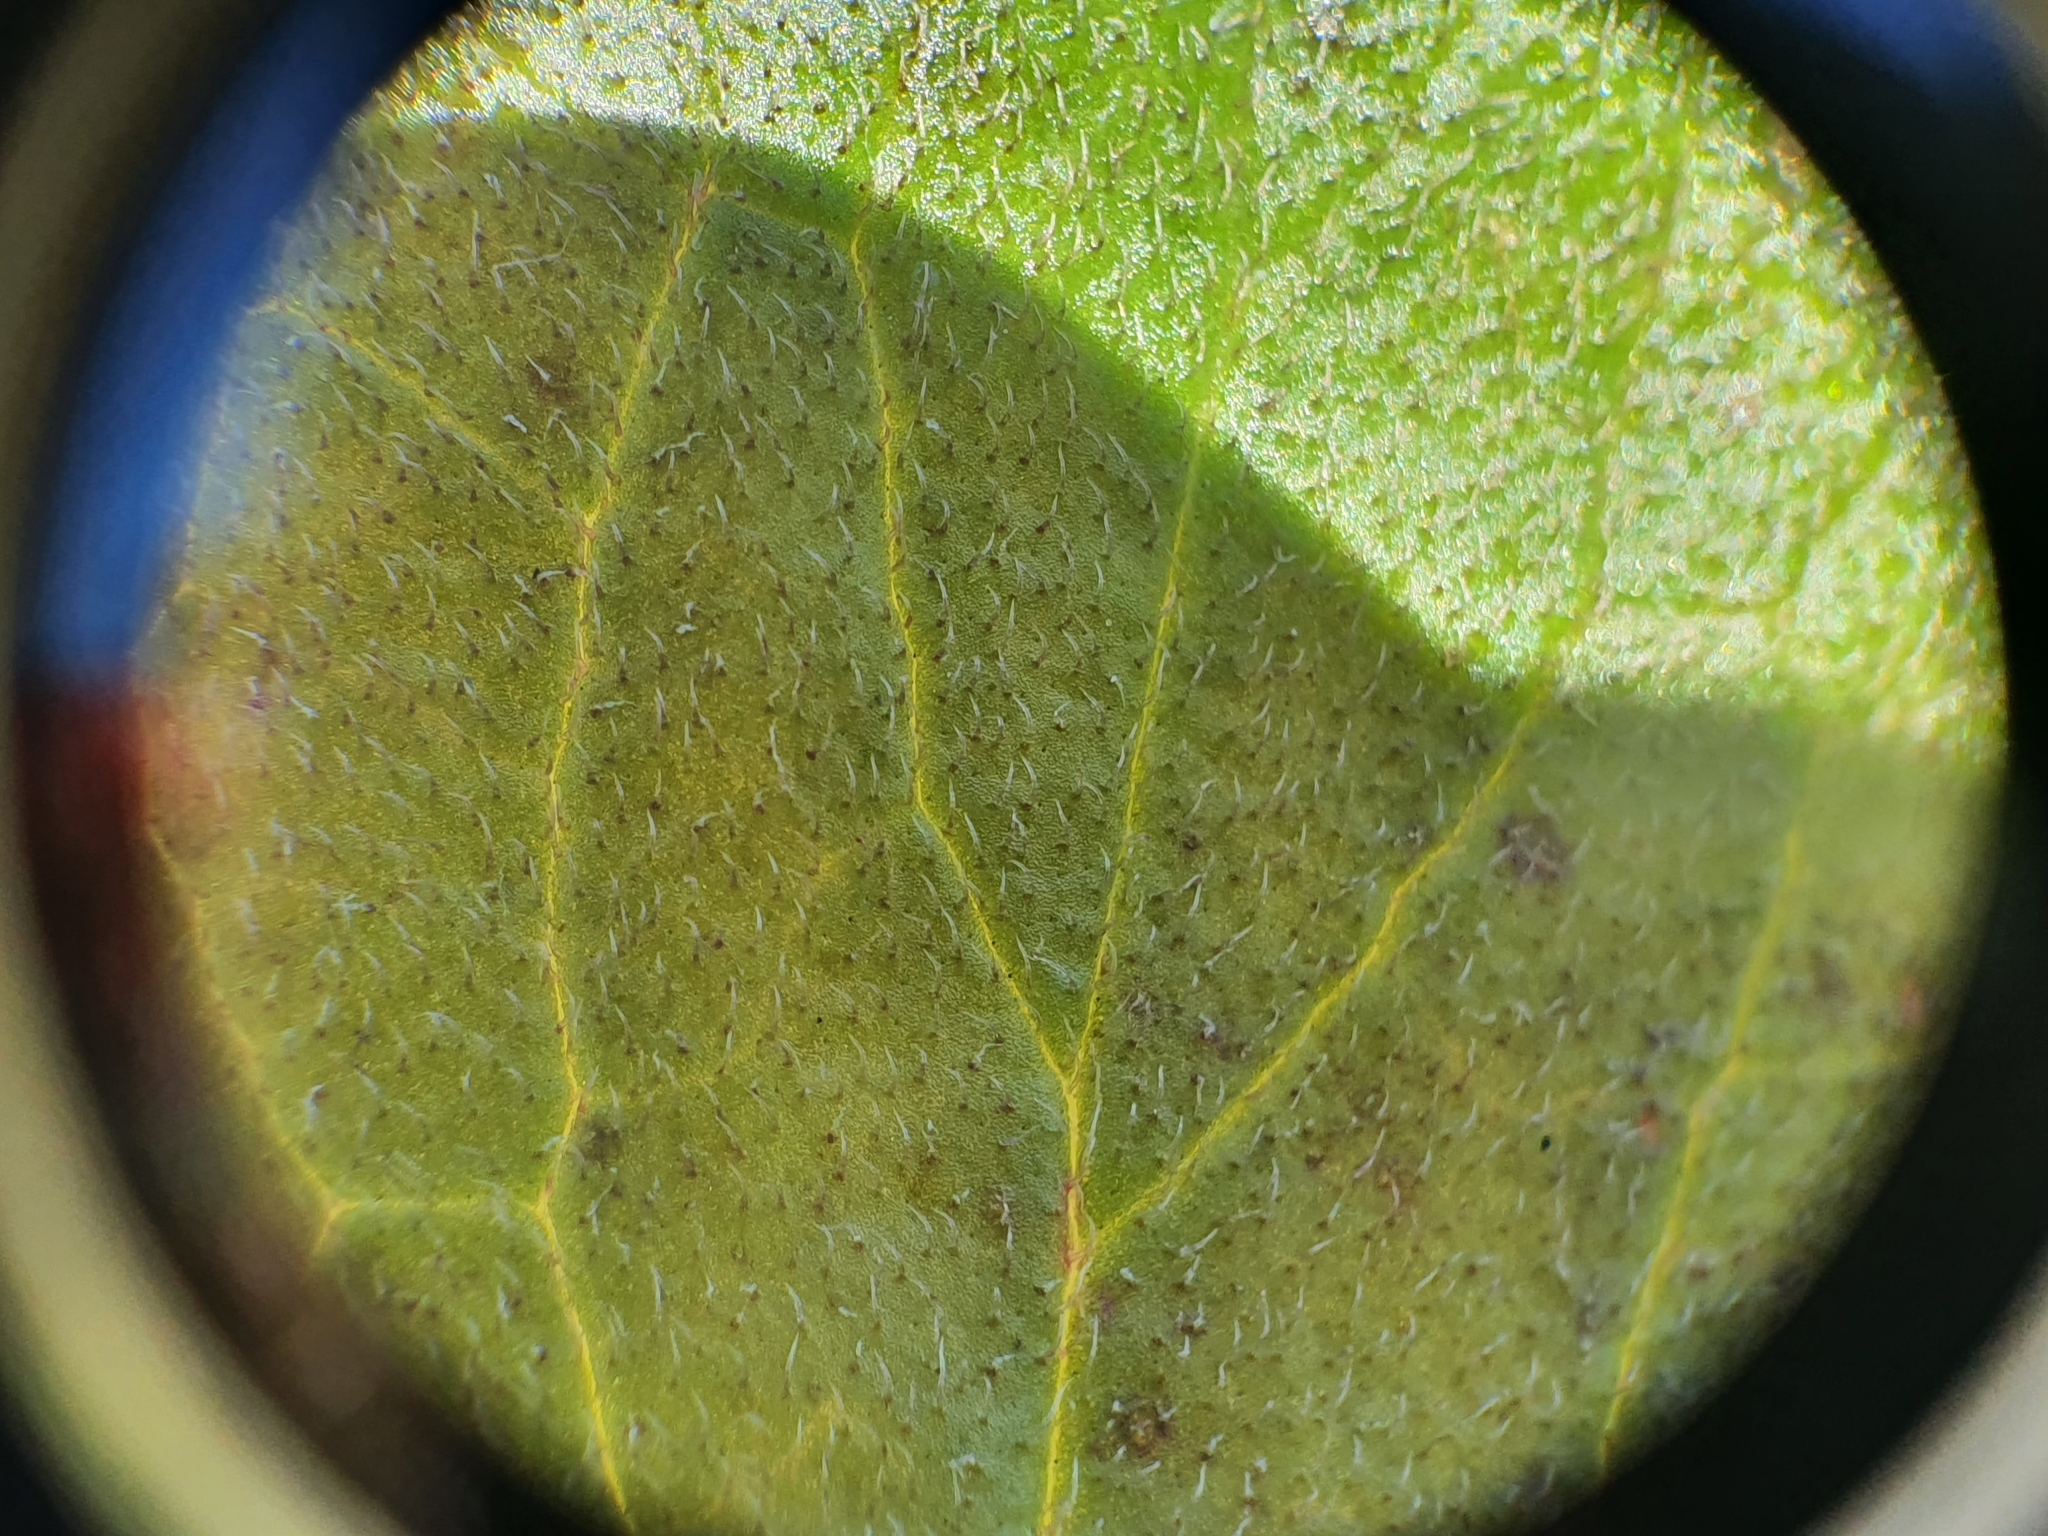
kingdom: Plantae
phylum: Tracheophyta
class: Magnoliopsida
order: Lamiales
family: Plantaginaceae
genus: Ourisia
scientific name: Ourisia macrophylla
